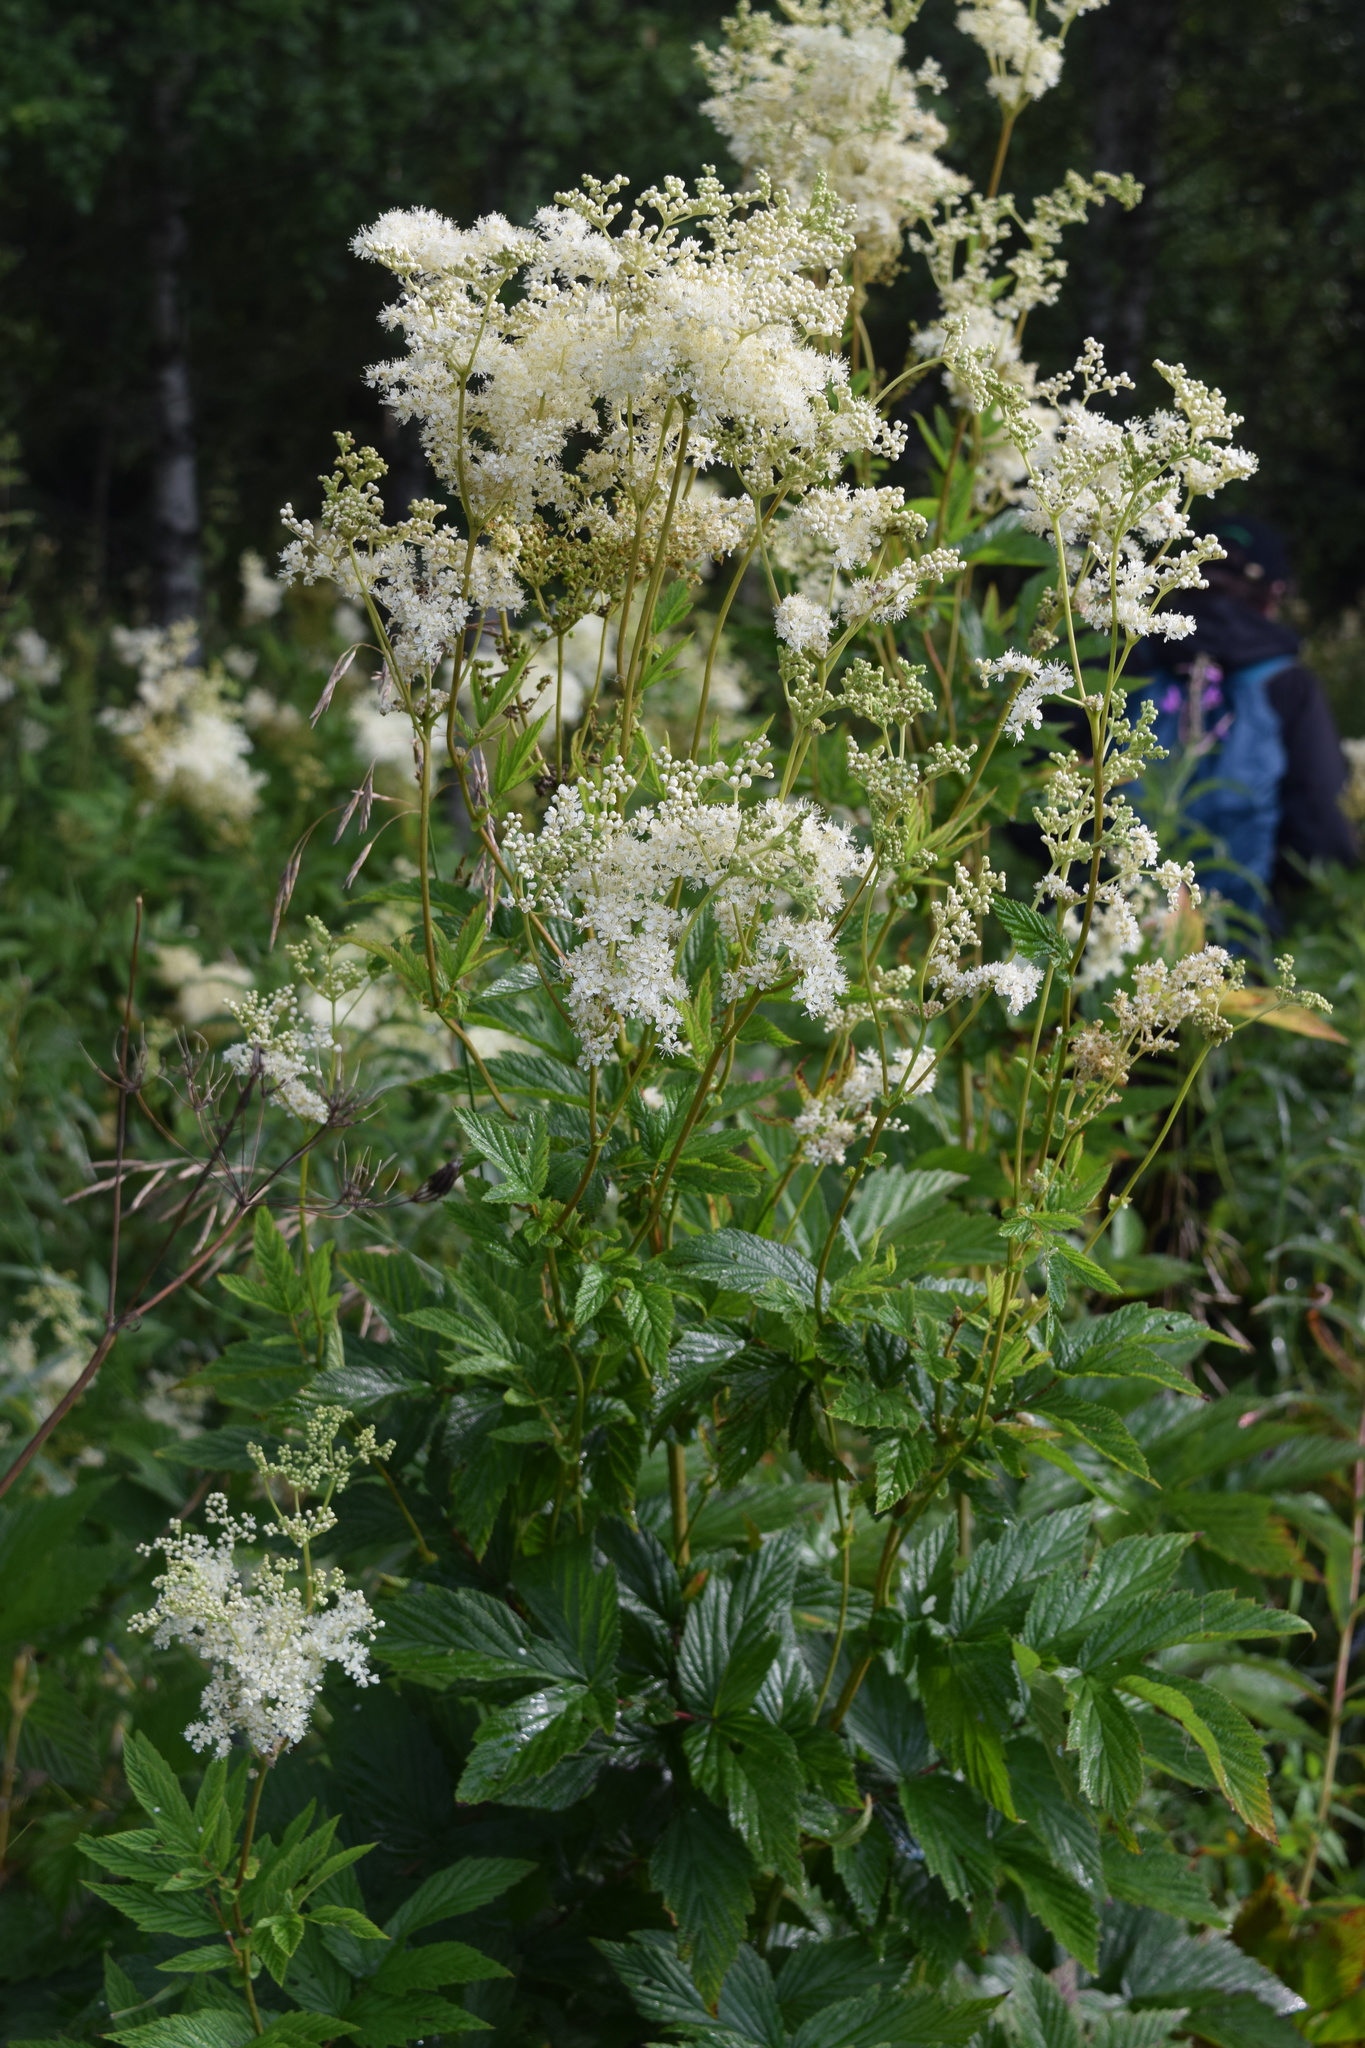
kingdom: Plantae
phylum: Tracheophyta
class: Magnoliopsida
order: Rosales
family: Rosaceae
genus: Filipendula
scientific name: Filipendula ulmaria
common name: Meadowsweet
